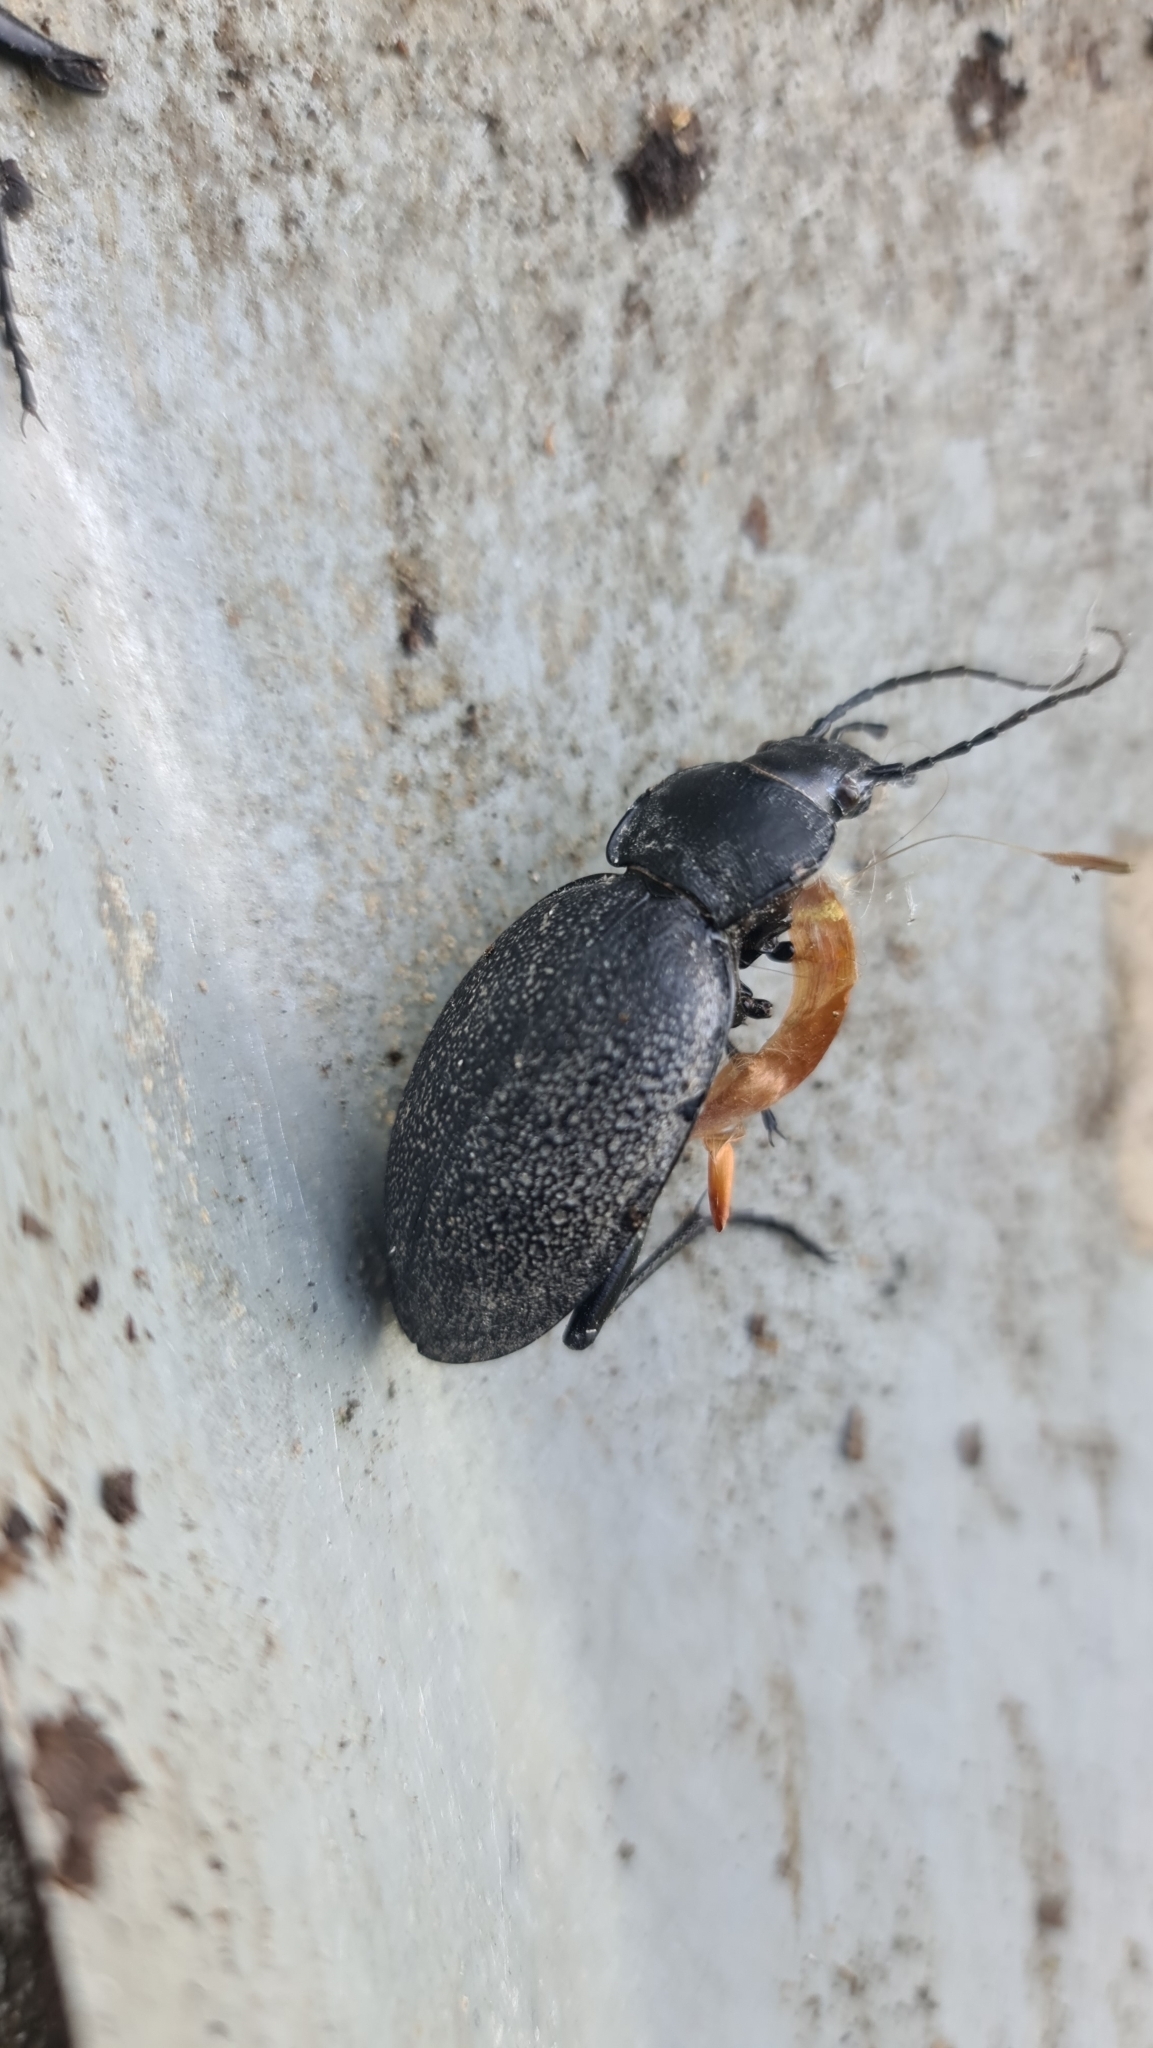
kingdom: Animalia
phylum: Arthropoda
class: Insecta
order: Coleoptera
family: Carabidae
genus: Carabus
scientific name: Carabus coriaceus
